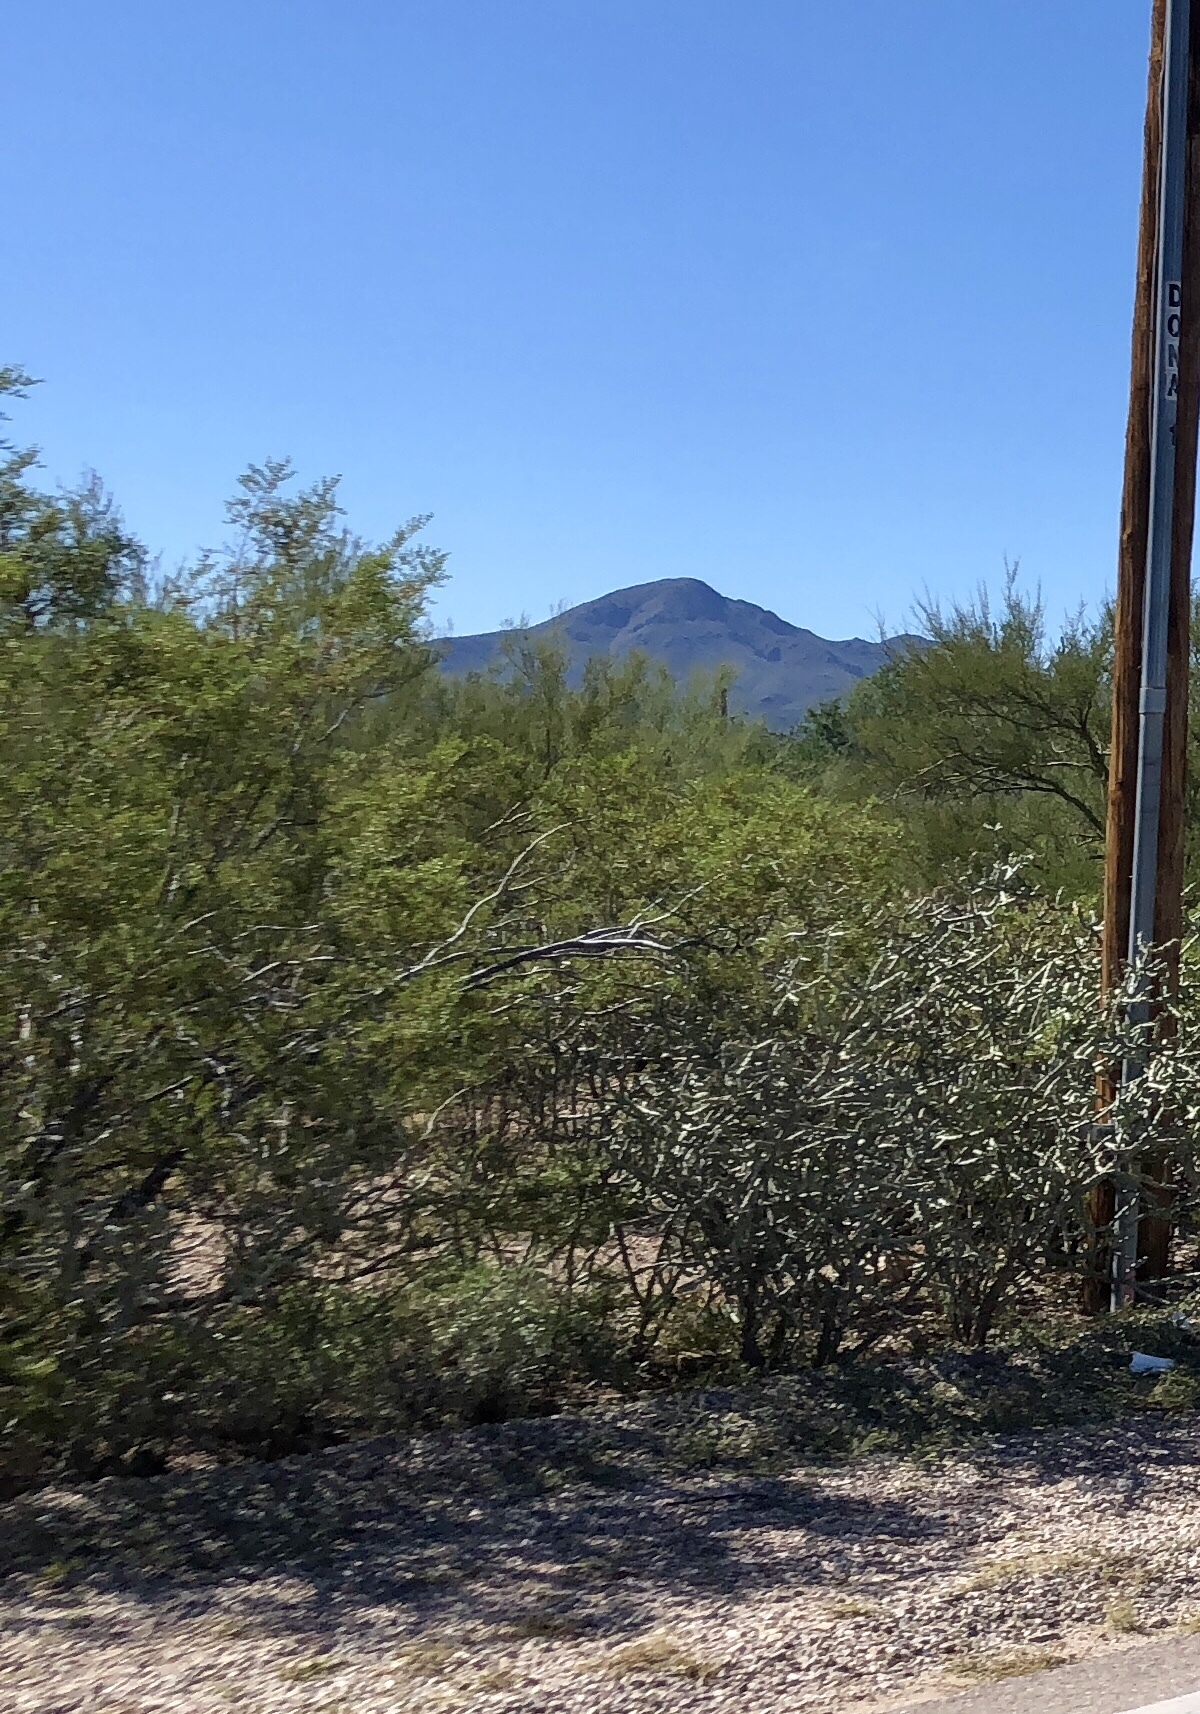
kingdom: Plantae
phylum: Tracheophyta
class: Magnoliopsida
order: Zygophyllales
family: Zygophyllaceae
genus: Larrea
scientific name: Larrea tridentata
